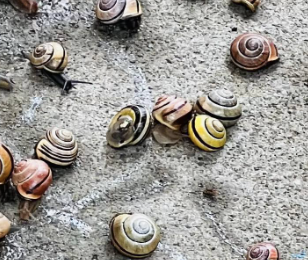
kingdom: Animalia
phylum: Mollusca
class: Gastropoda
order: Stylommatophora
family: Helicidae
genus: Cepaea
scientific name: Cepaea nemoralis
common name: Grovesnail
